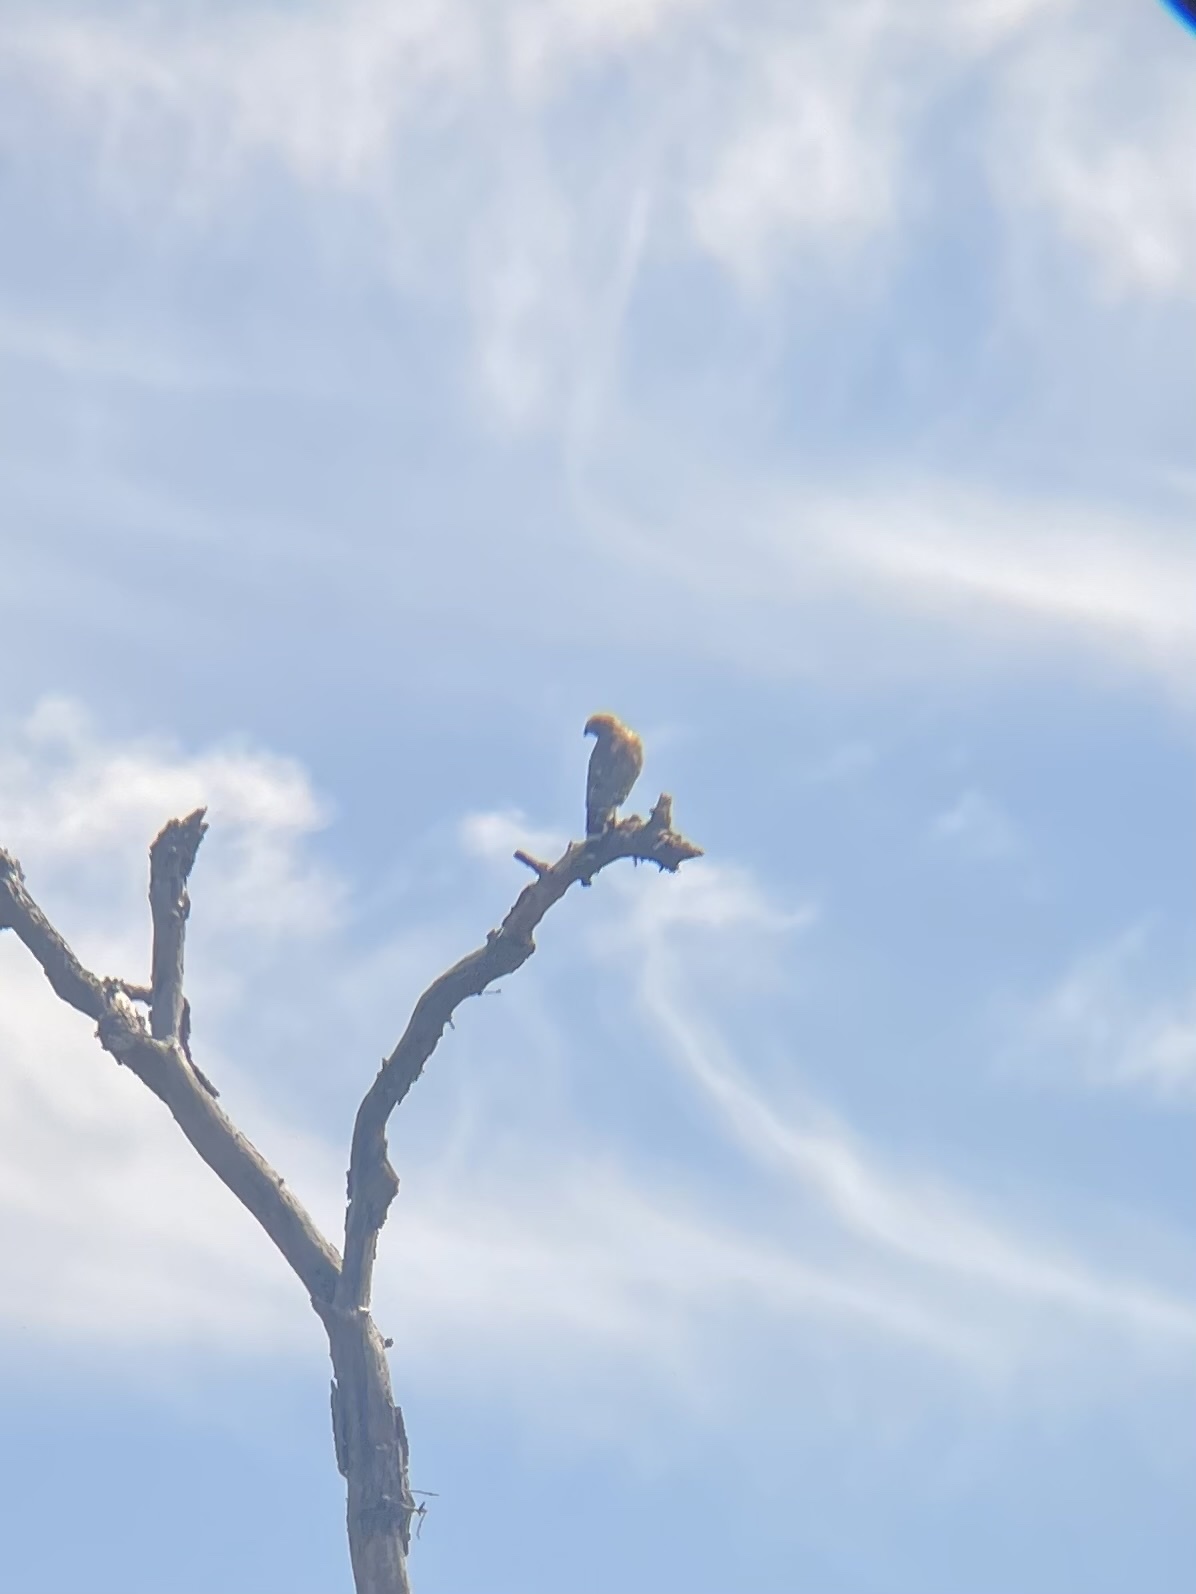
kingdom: Animalia
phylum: Chordata
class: Aves
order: Accipitriformes
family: Accipitridae
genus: Buteo
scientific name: Buteo lineatus
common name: Red-shouldered hawk
